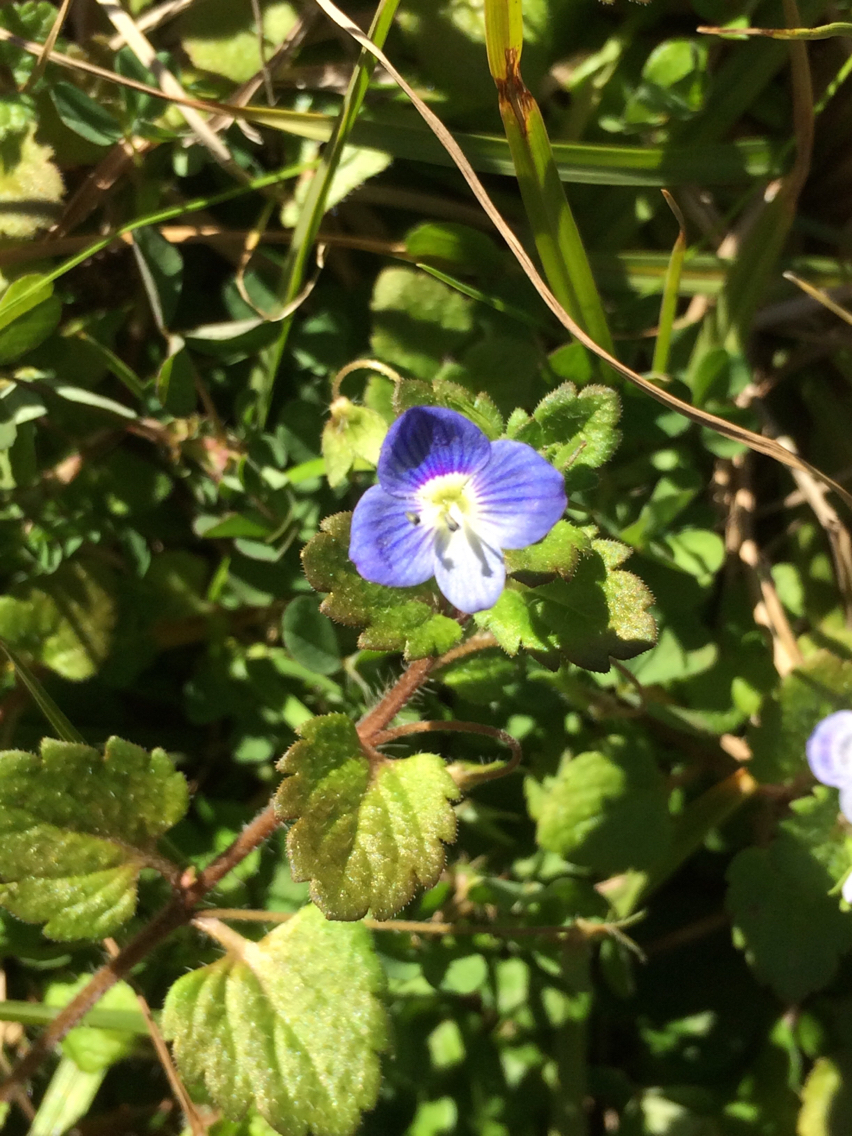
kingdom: Plantae
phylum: Tracheophyta
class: Magnoliopsida
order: Lamiales
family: Plantaginaceae
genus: Veronica
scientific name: Veronica persica
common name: Common field-speedwell
